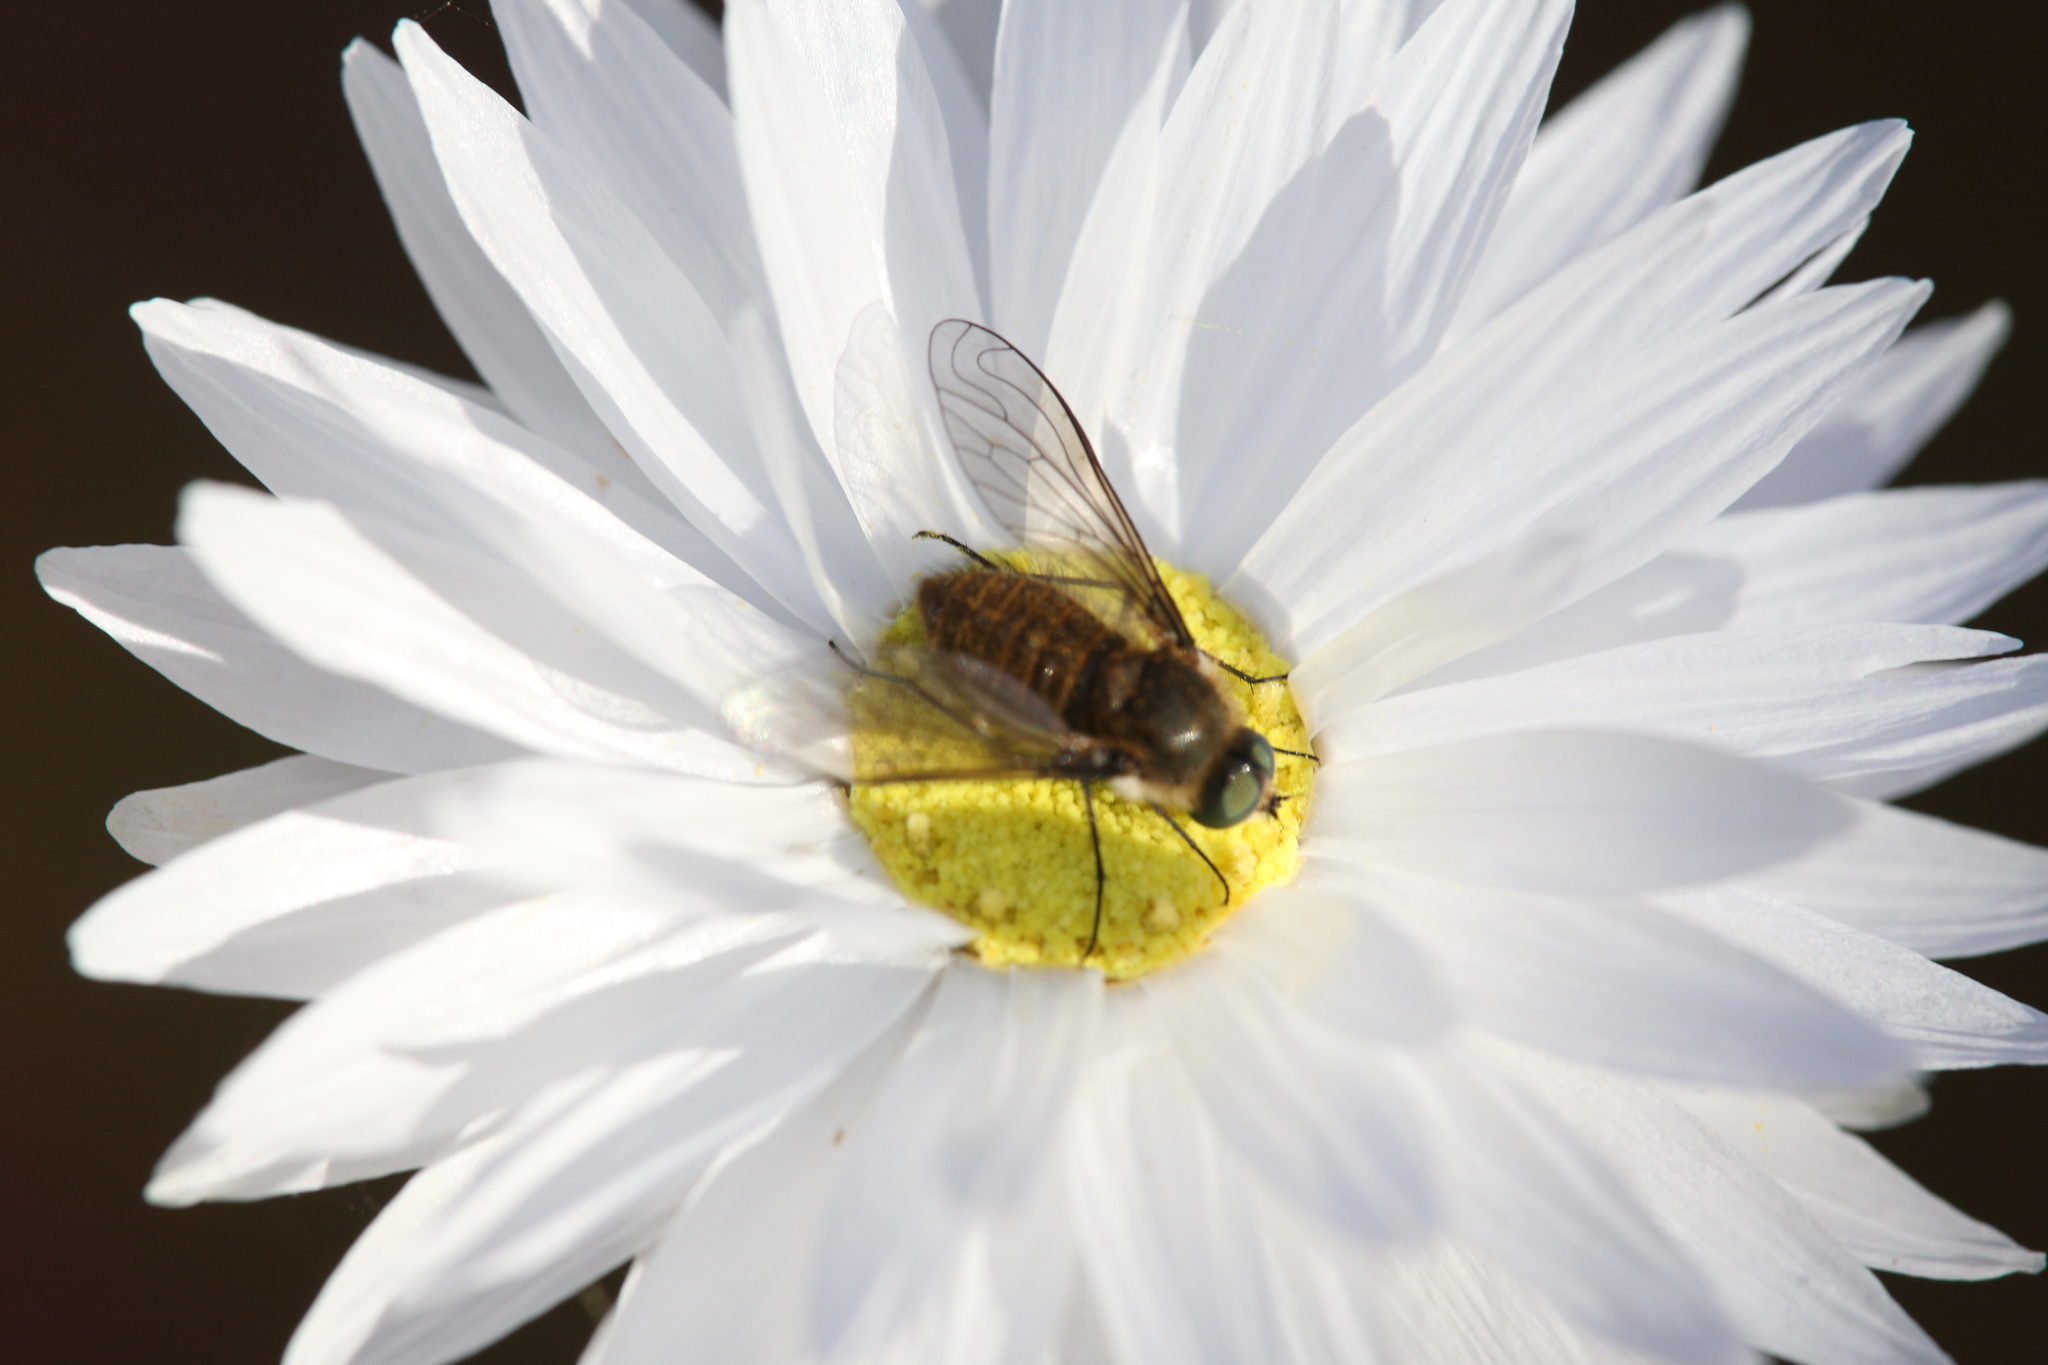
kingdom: Plantae
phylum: Tracheophyta
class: Magnoliopsida
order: Asterales
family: Asteraceae
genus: Rhodanthe
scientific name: Rhodanthe chlorocephala
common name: Rosy sunray
